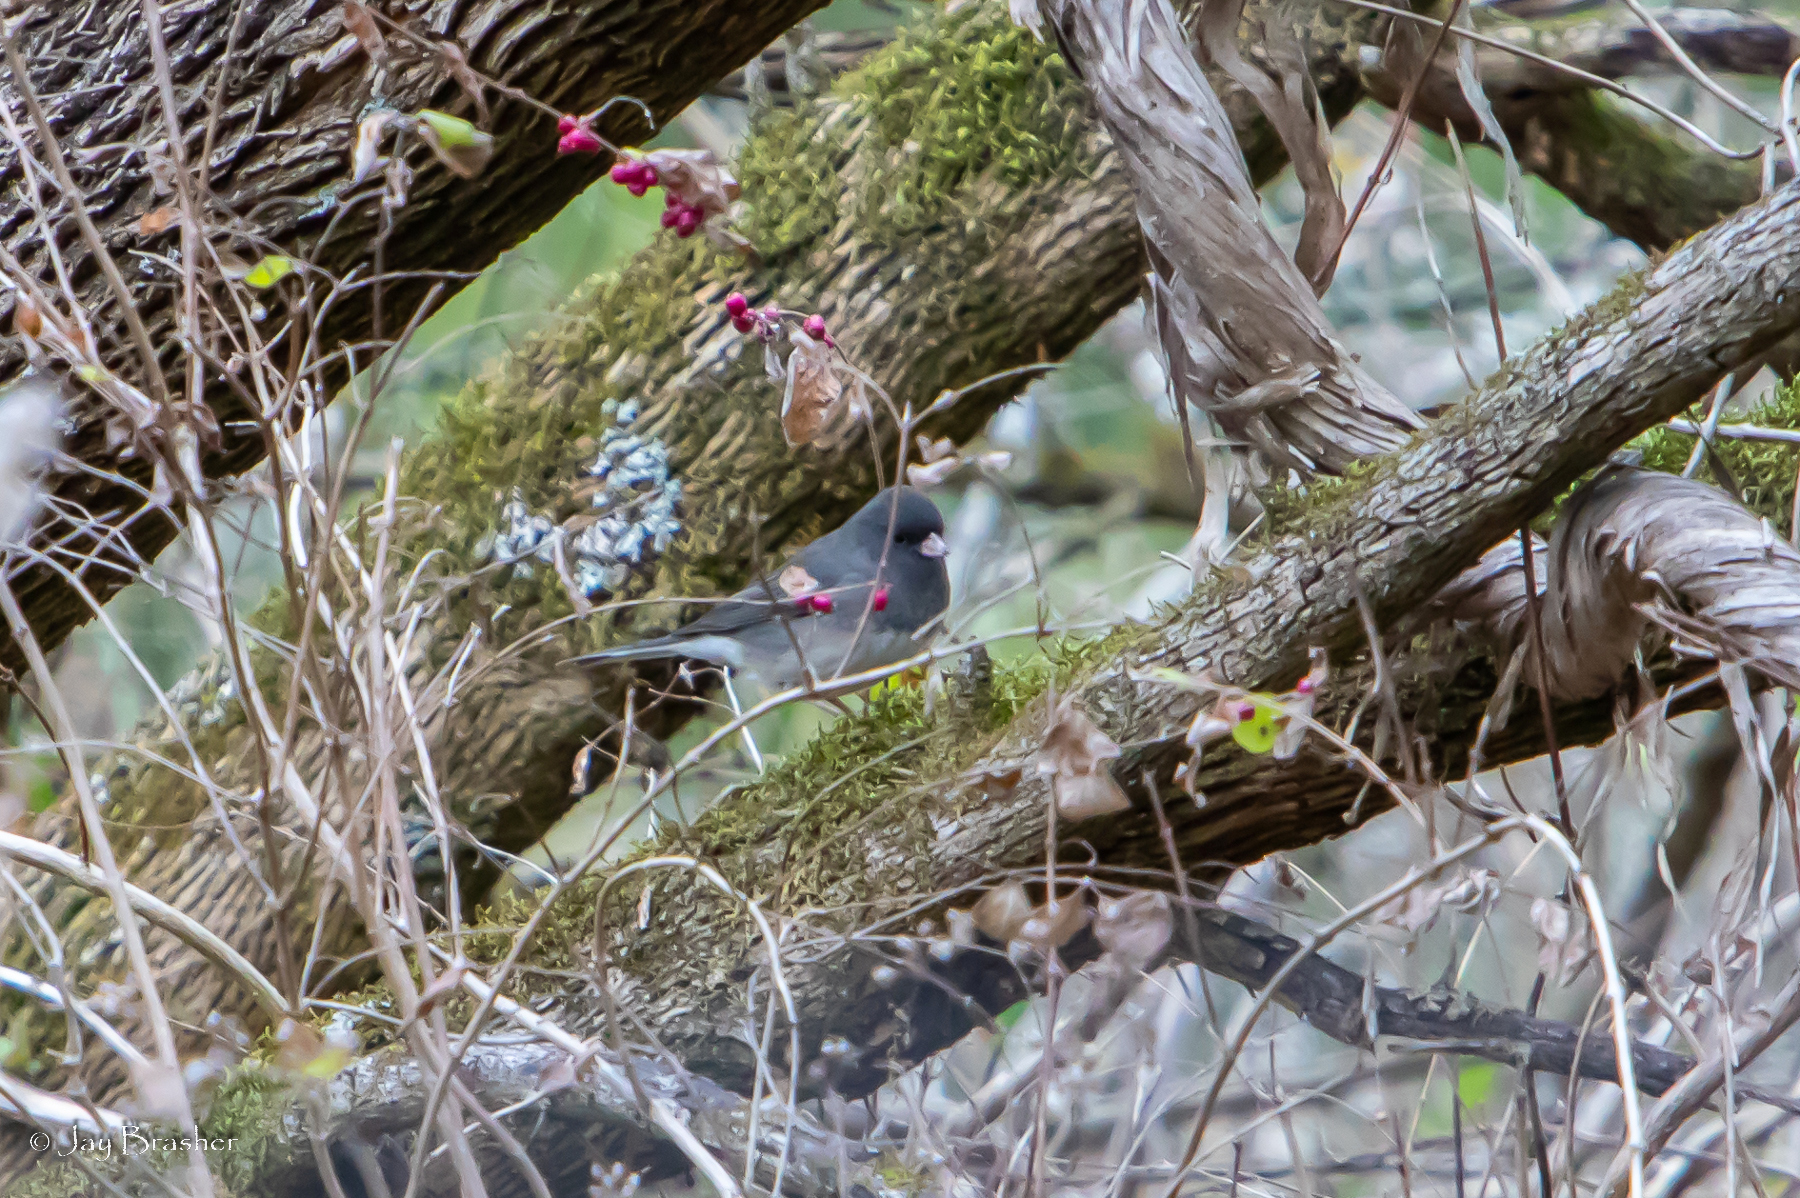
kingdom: Animalia
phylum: Chordata
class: Aves
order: Passeriformes
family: Passerellidae
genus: Junco
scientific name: Junco hyemalis
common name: Dark-eyed junco
